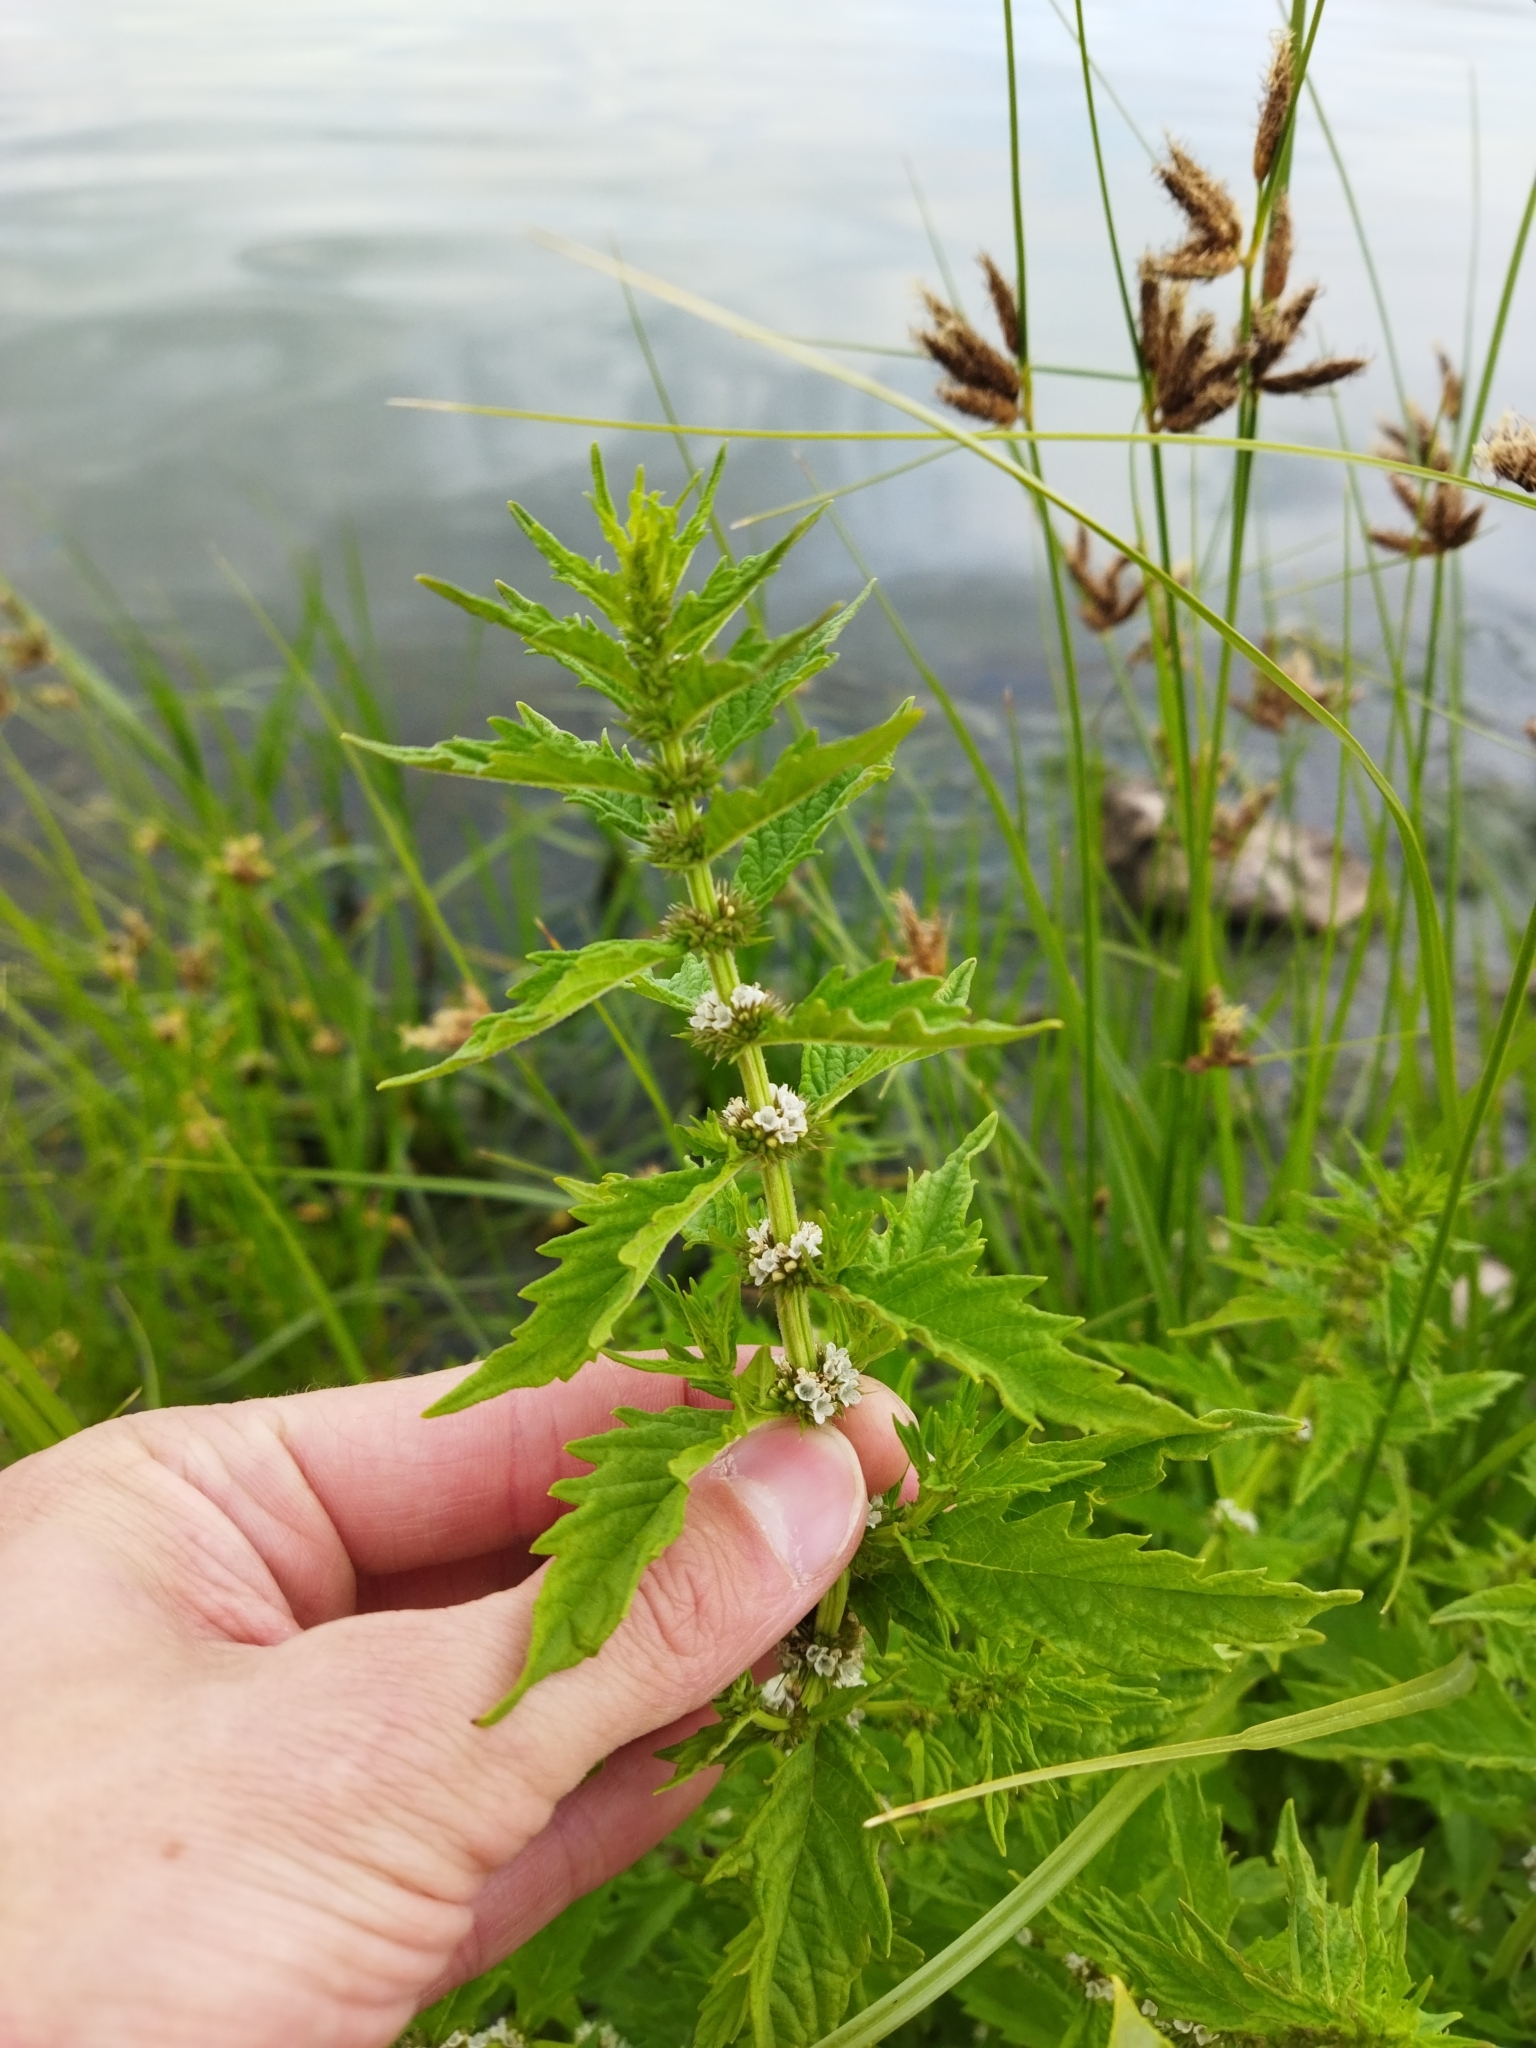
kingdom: Plantae
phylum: Tracheophyta
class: Magnoliopsida
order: Lamiales
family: Lamiaceae
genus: Lycopus
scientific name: Lycopus europaeus
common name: European bugleweed
